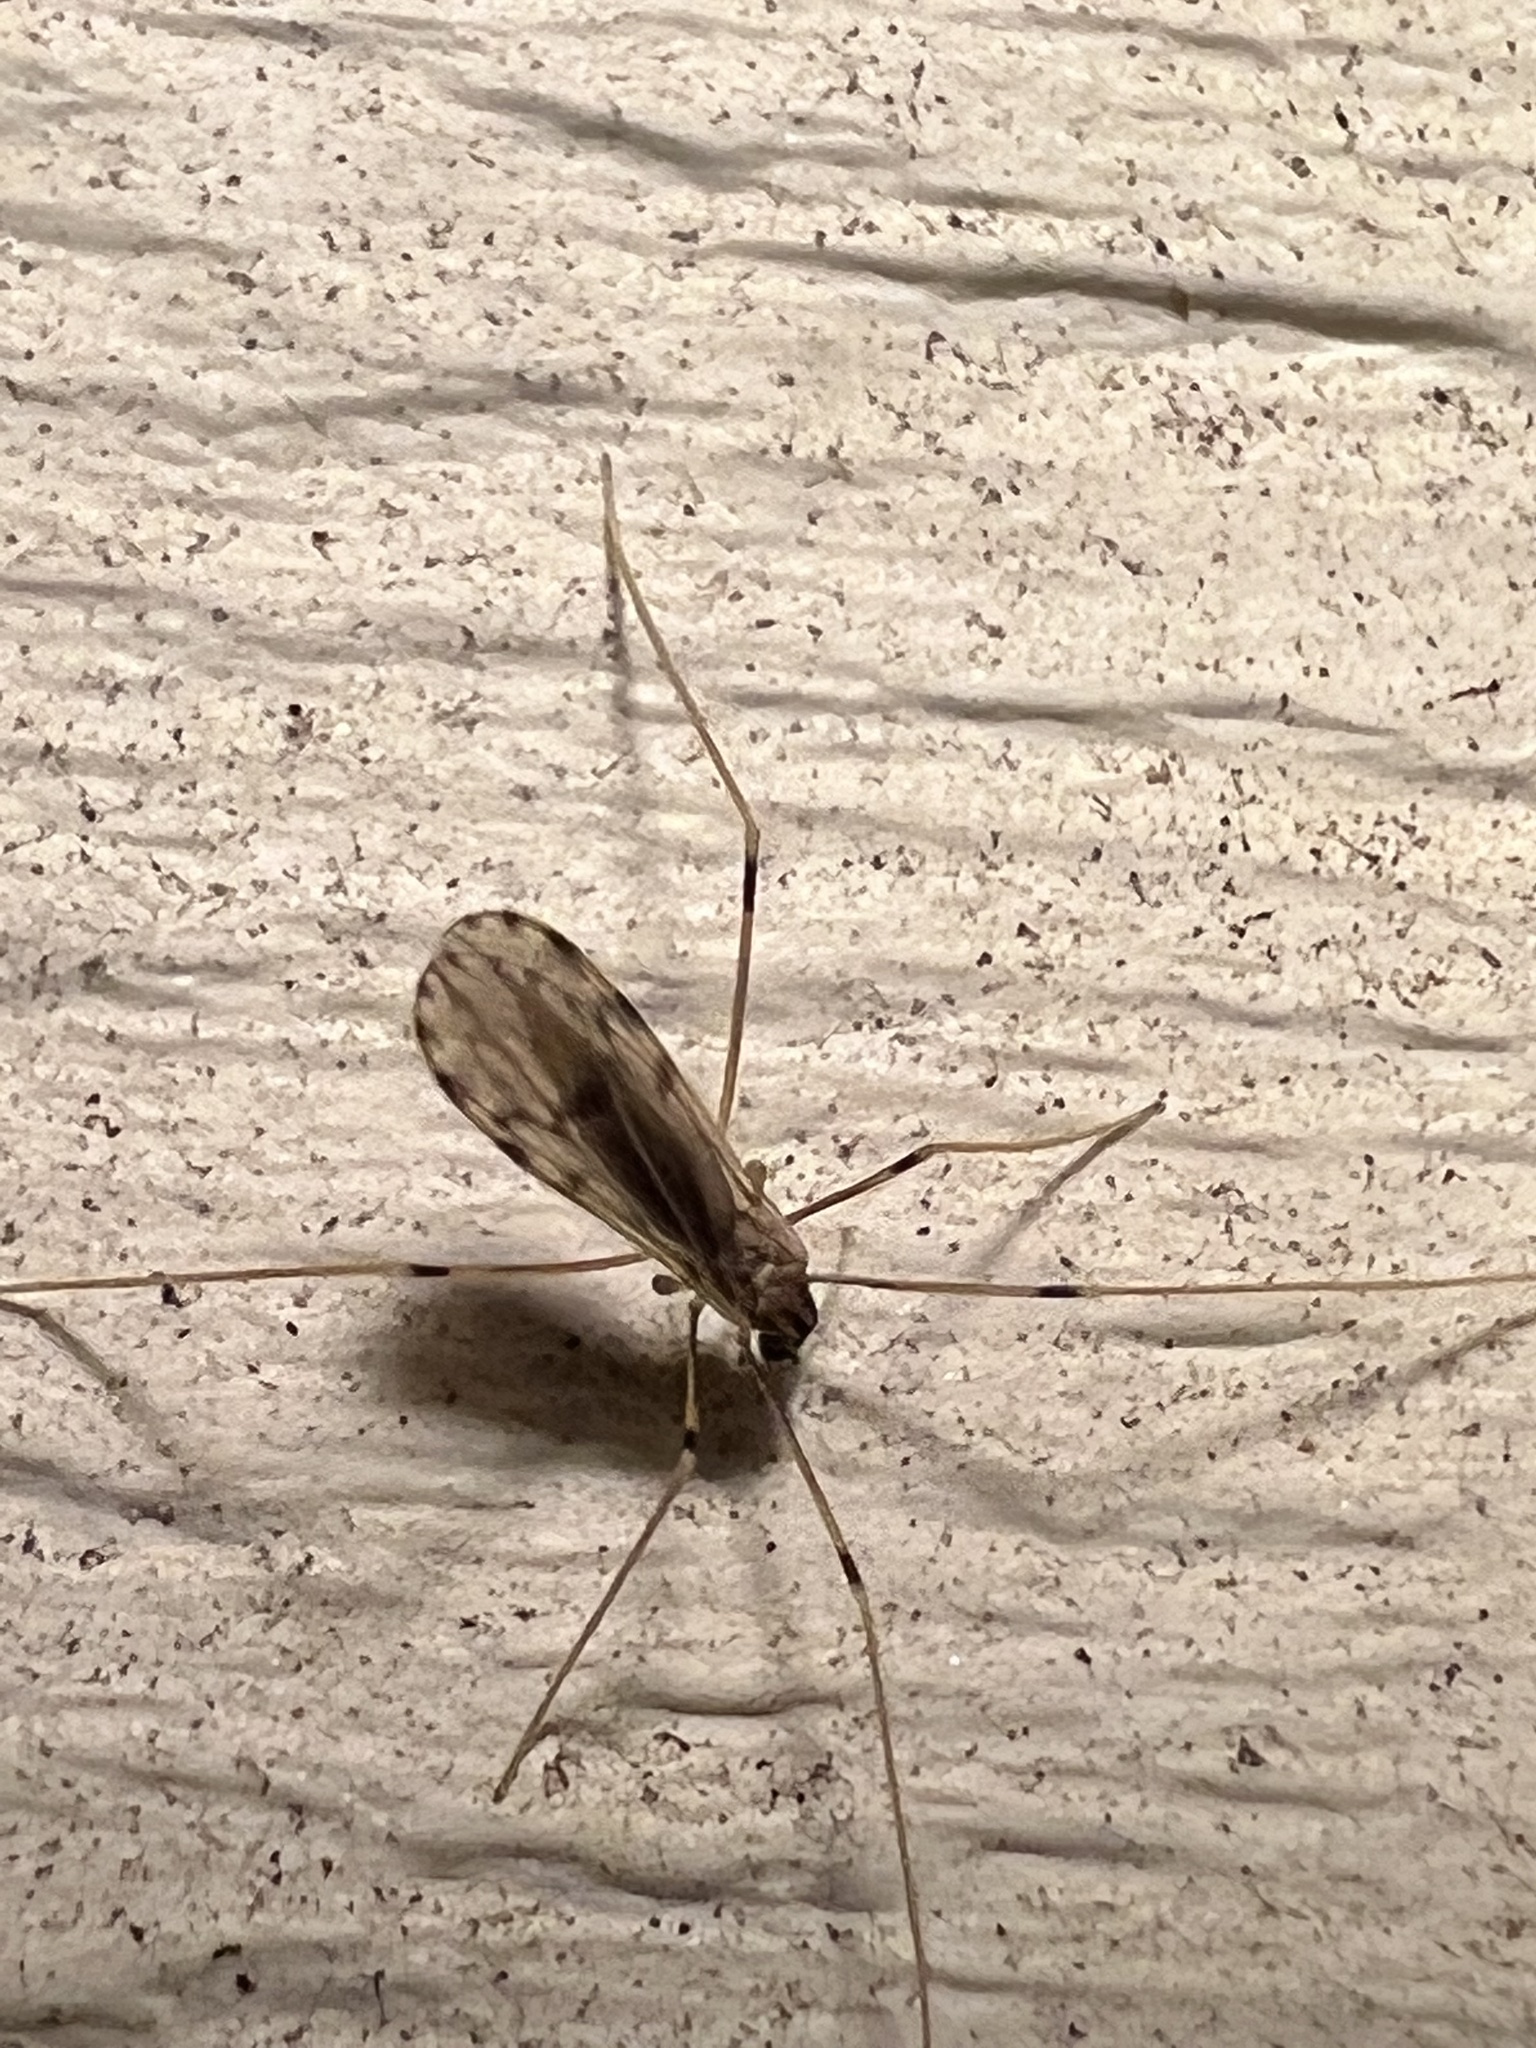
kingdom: Animalia
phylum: Arthropoda
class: Insecta
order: Diptera
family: Limoniidae
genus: Erioptera
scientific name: Erioptera parva
